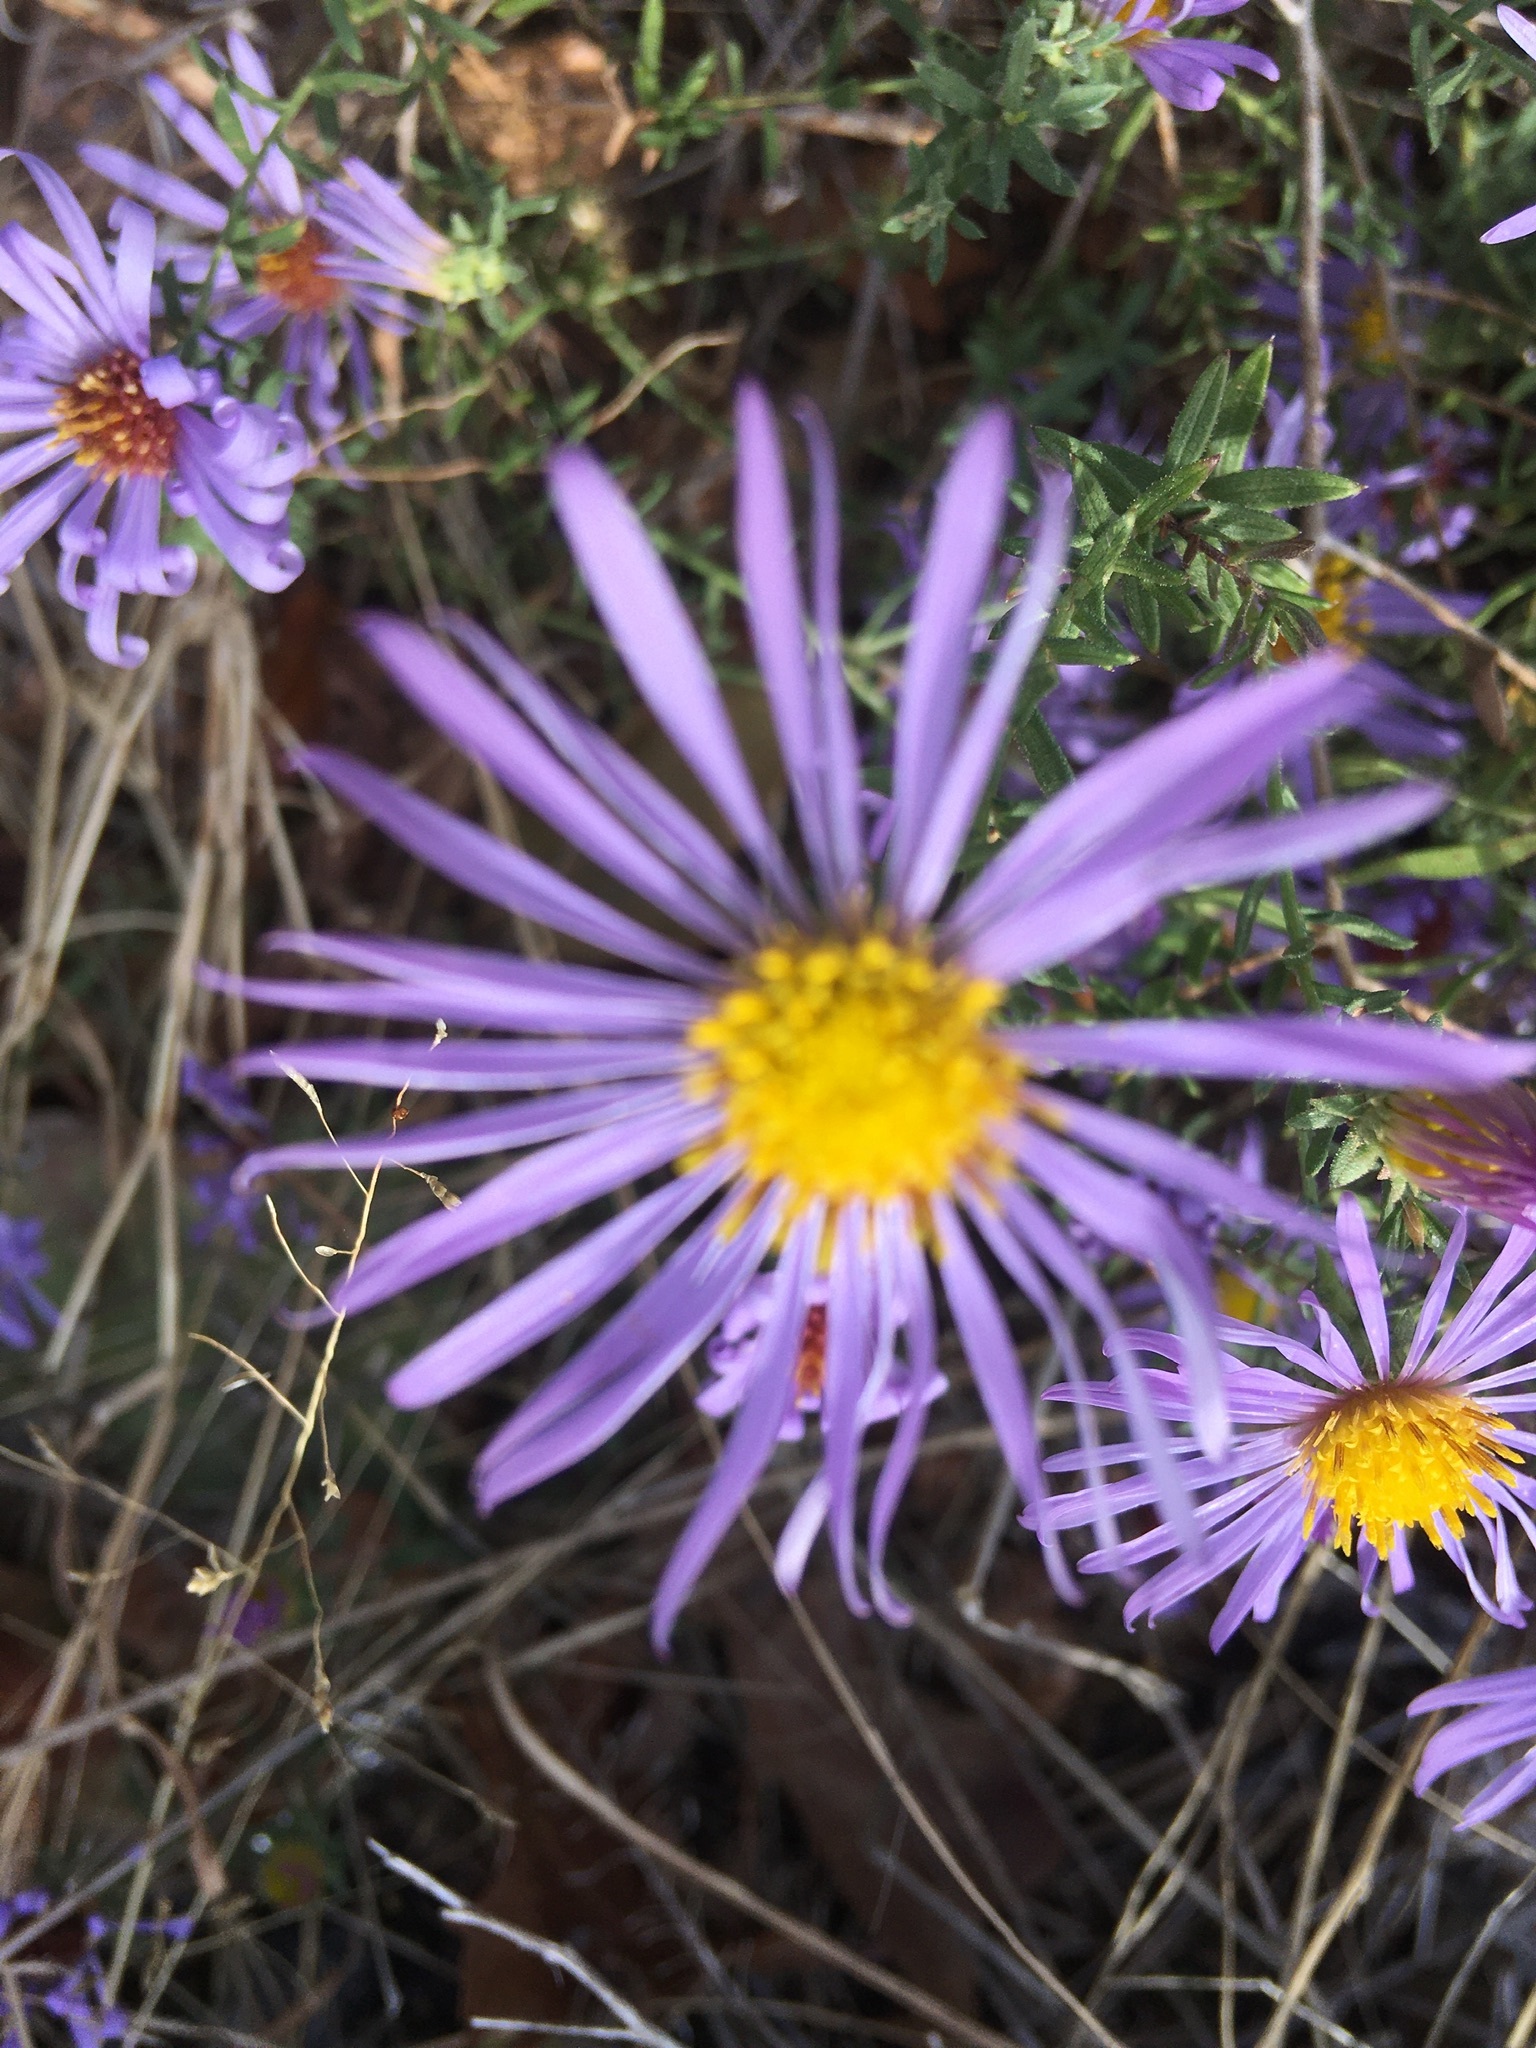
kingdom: Plantae
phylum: Tracheophyta
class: Magnoliopsida
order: Asterales
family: Asteraceae
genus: Symphyotrichum
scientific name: Symphyotrichum oblongifolium
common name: Aromatic aster
